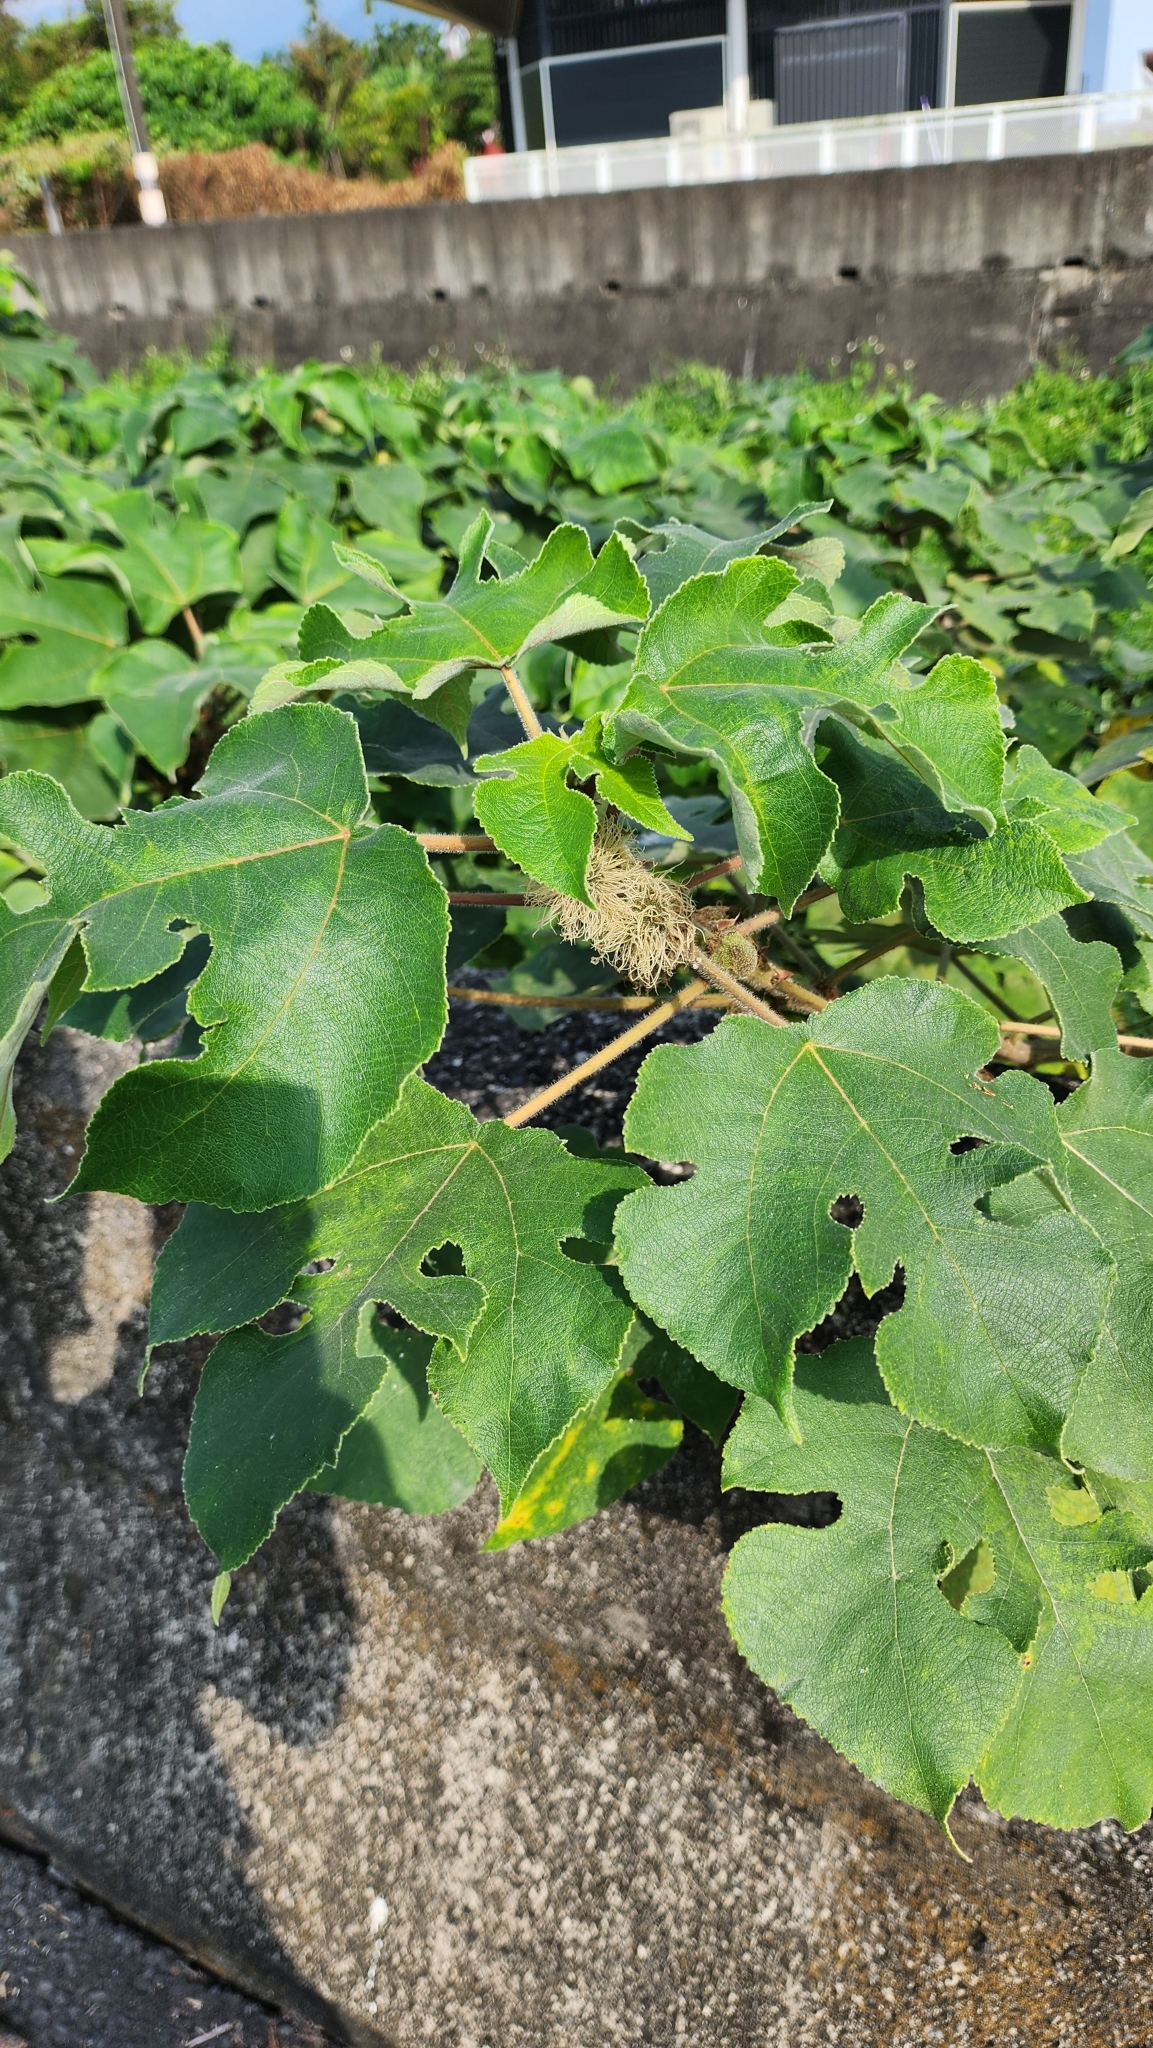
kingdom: Plantae
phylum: Tracheophyta
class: Magnoliopsida
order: Rosales
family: Moraceae
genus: Broussonetia
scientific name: Broussonetia papyrifera
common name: Paper mulberry
